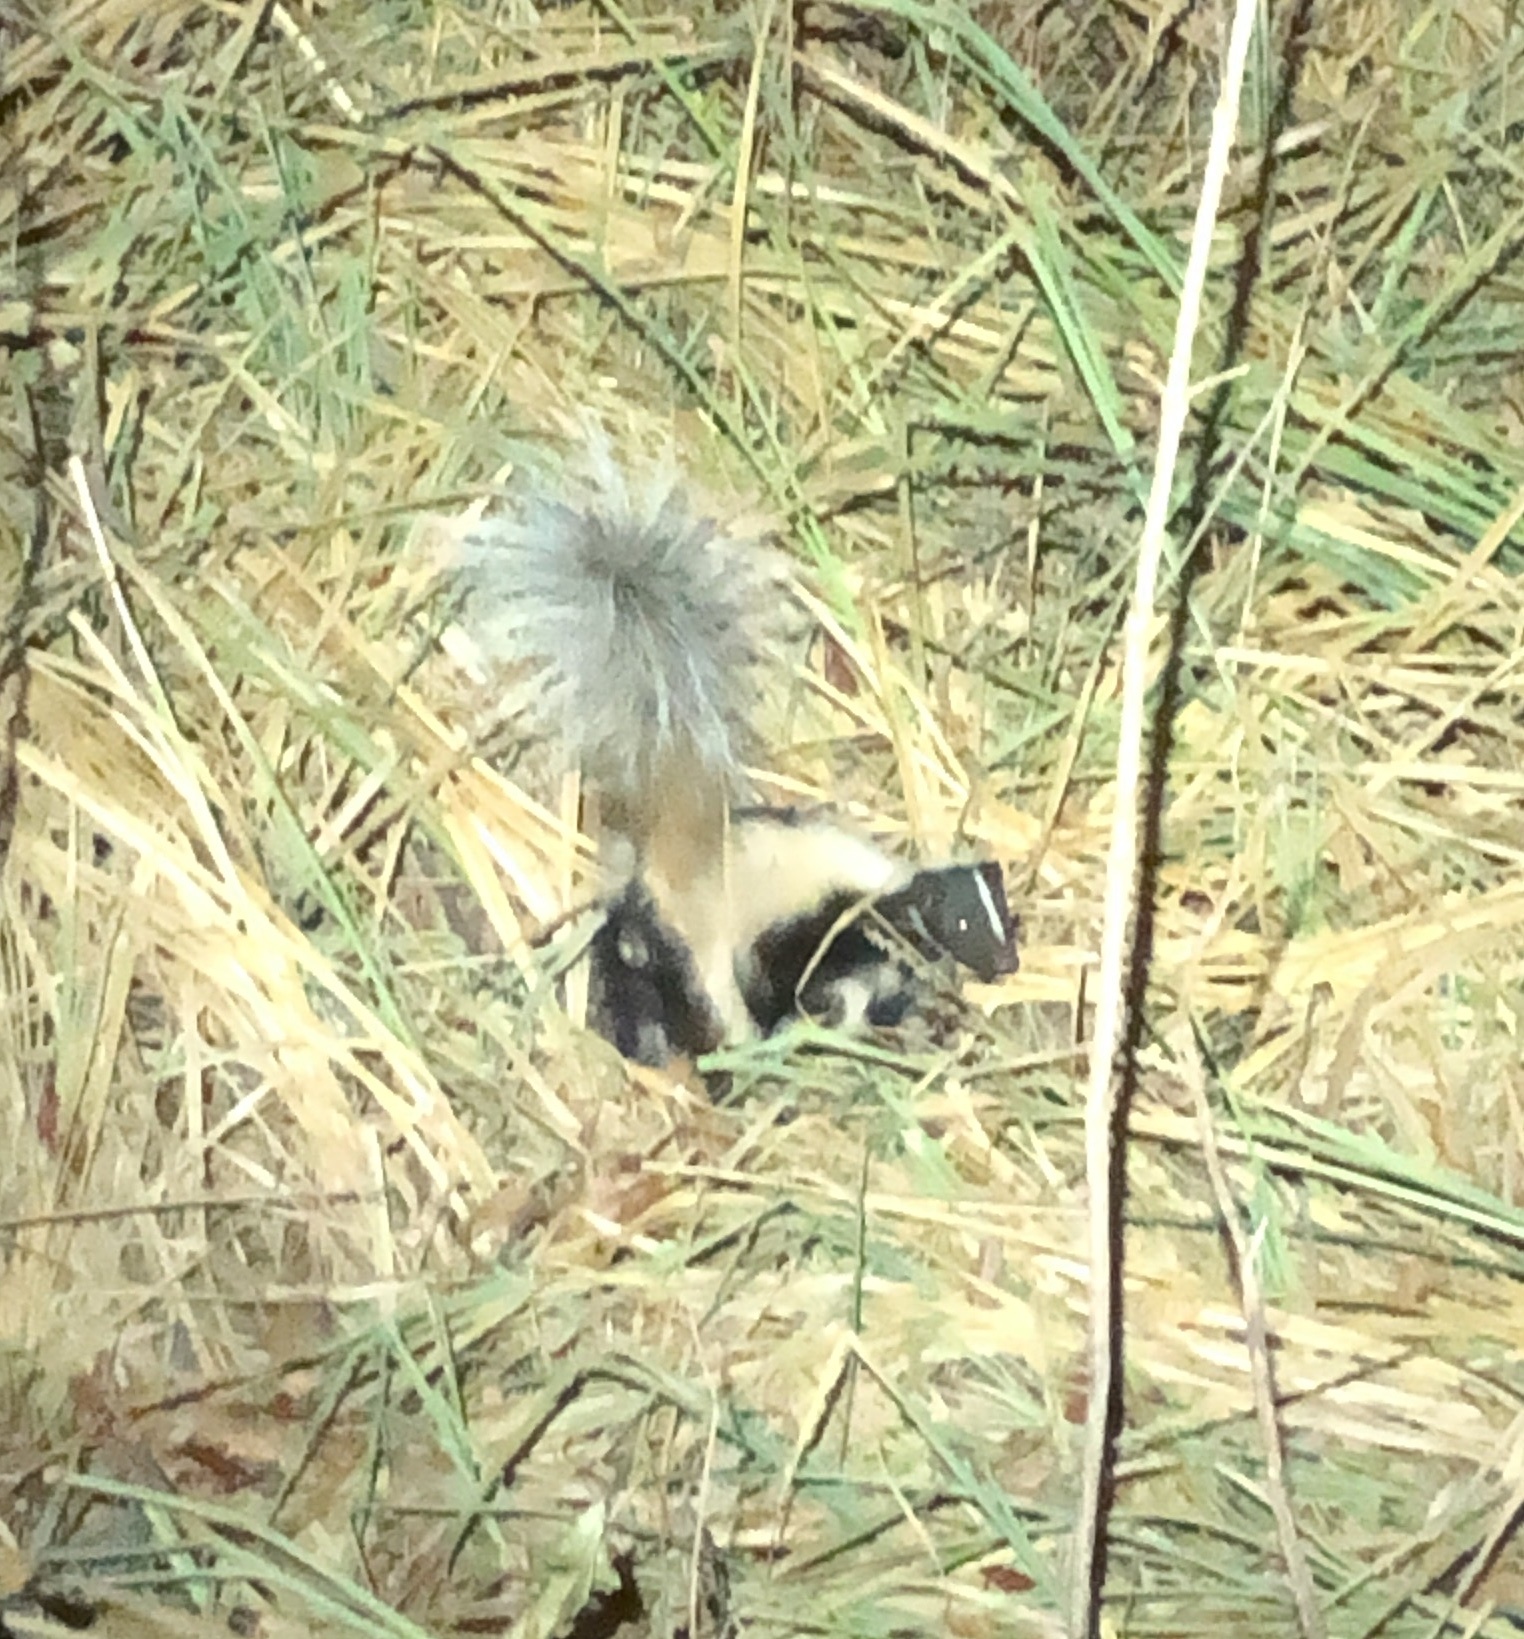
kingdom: Animalia
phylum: Chordata
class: Mammalia
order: Carnivora
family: Mephitidae
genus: Mephitis
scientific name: Mephitis mephitis
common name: Striped skunk
